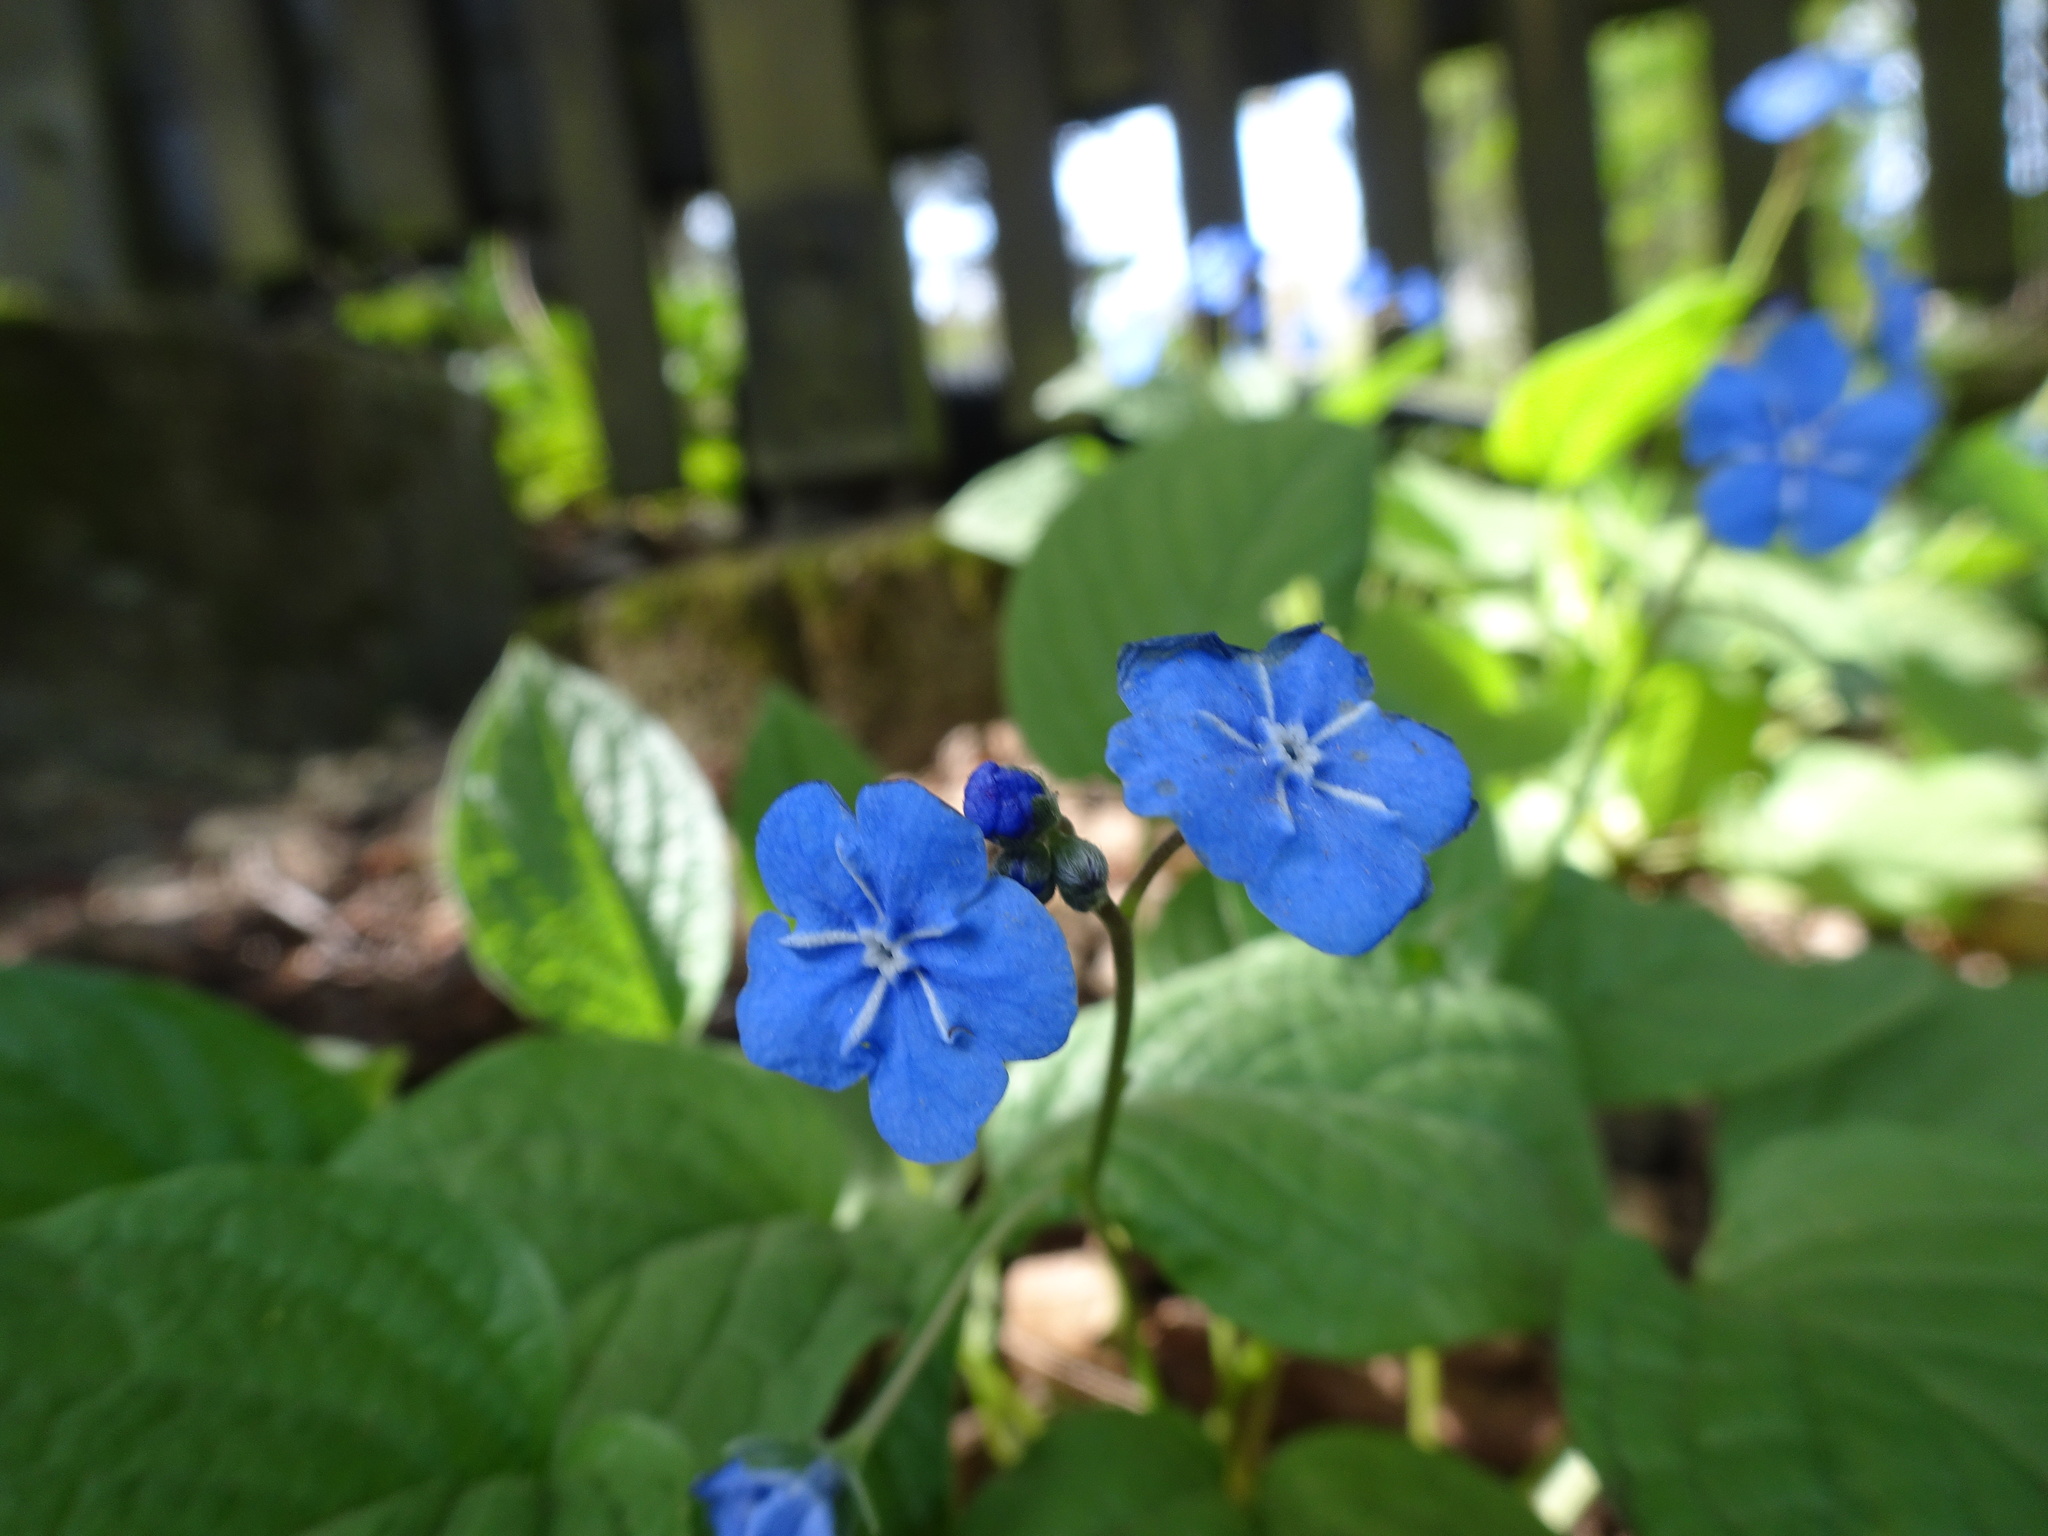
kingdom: Plantae
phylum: Tracheophyta
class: Magnoliopsida
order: Boraginales
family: Boraginaceae
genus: Omphalodes
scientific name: Omphalodes verna
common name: Blue-eyed-mary
